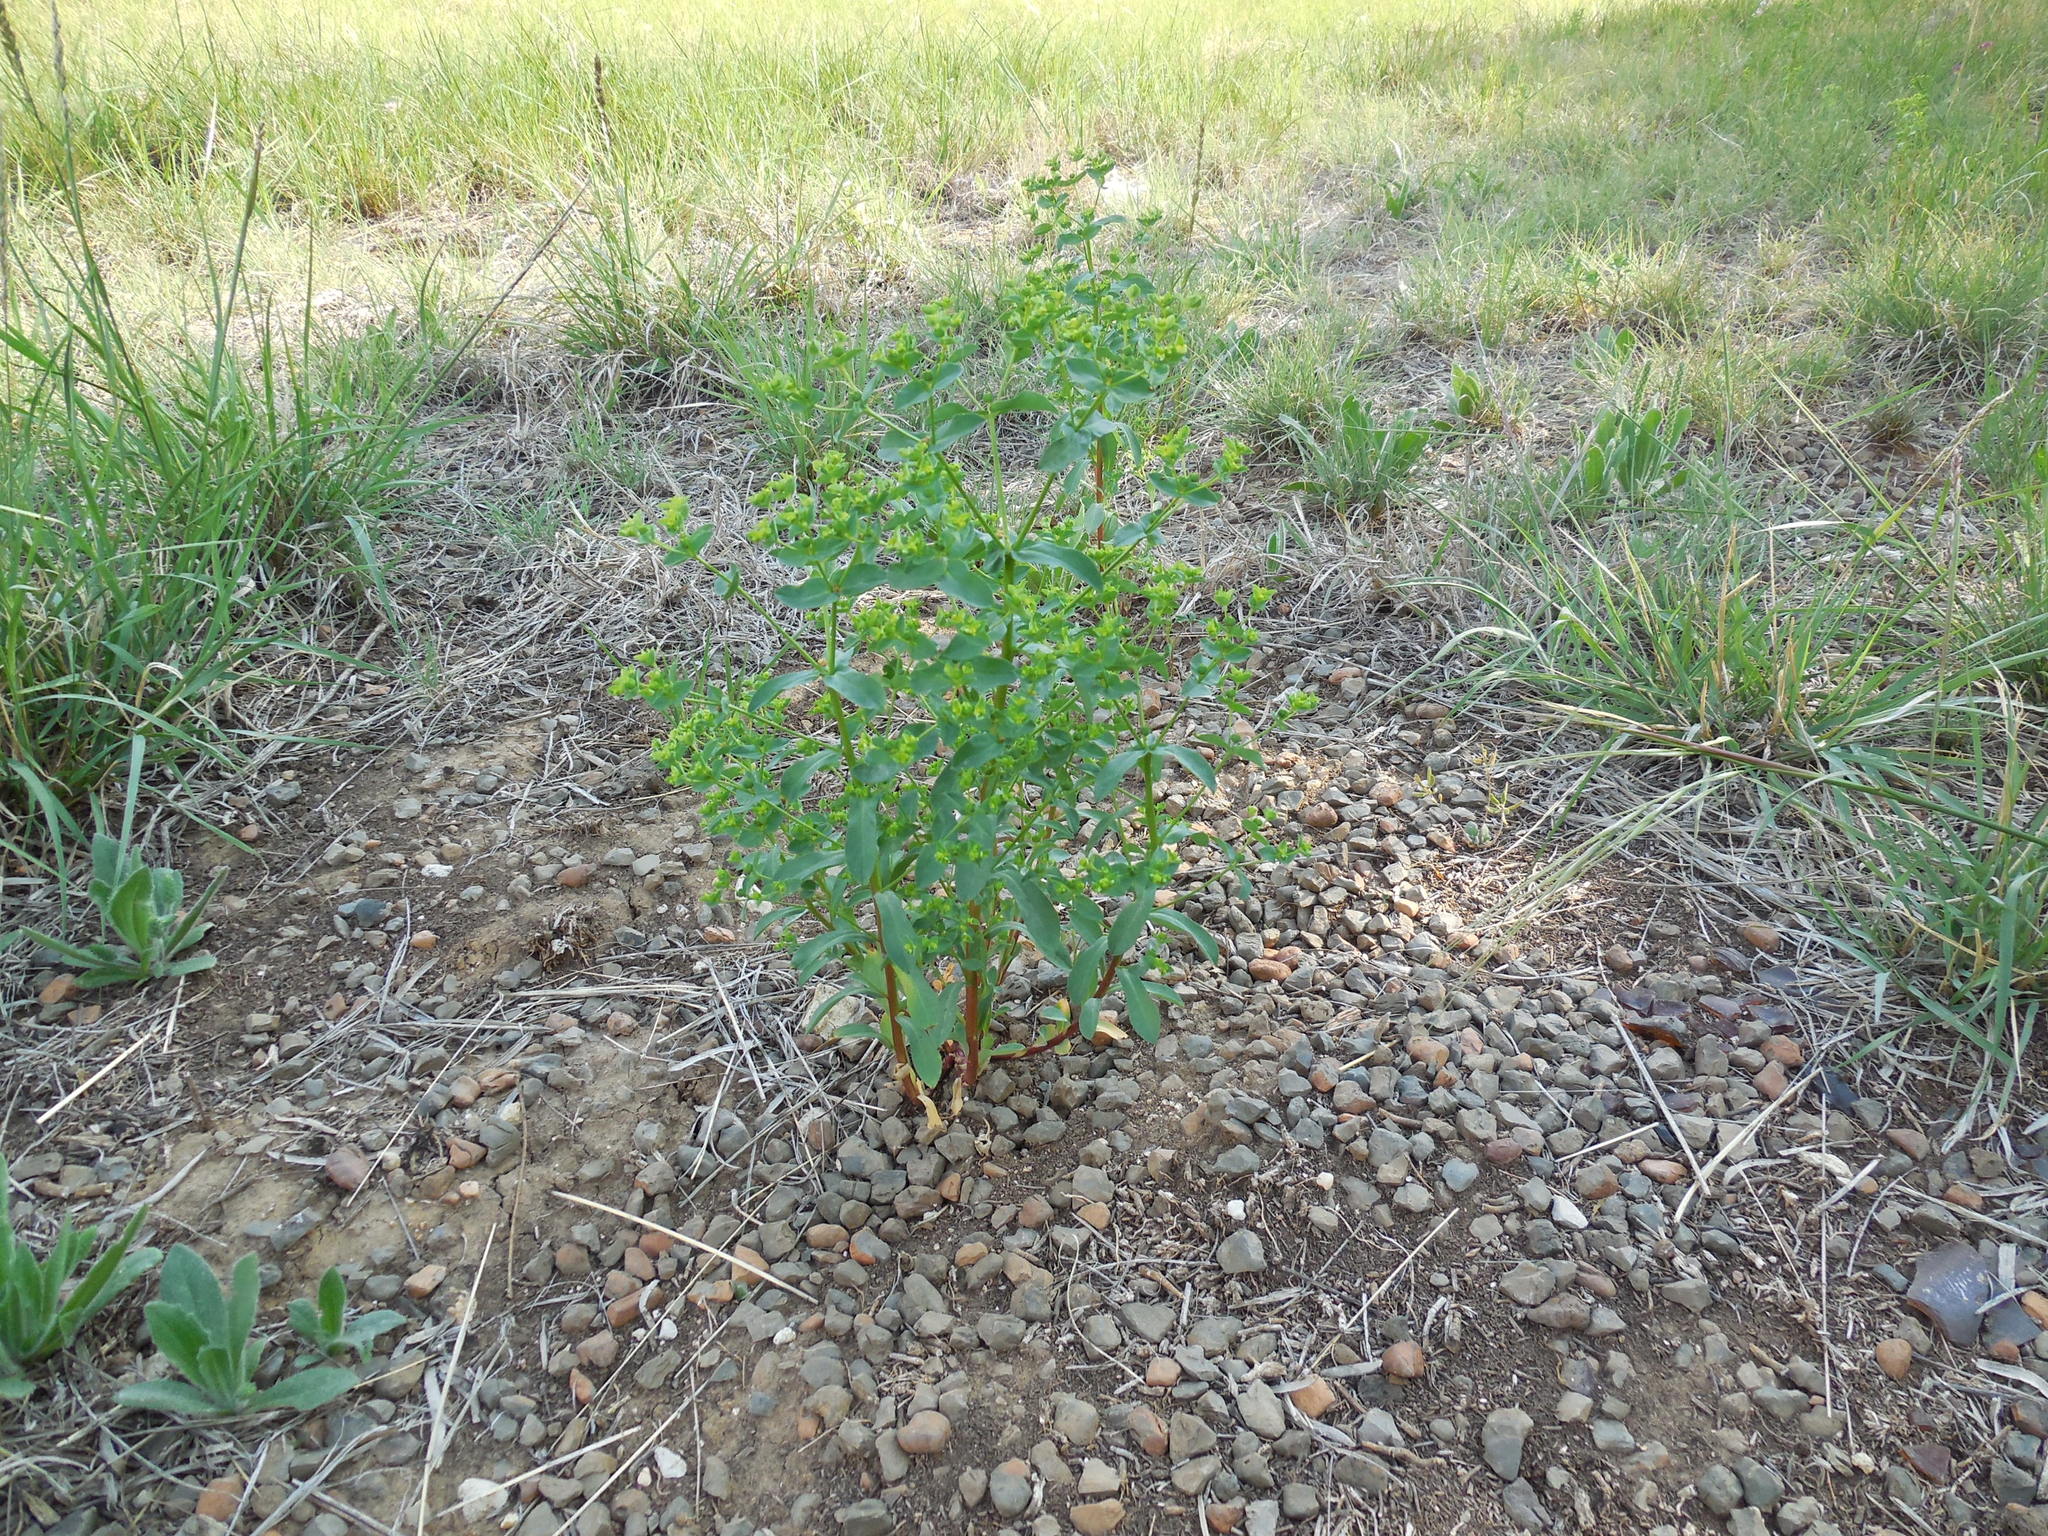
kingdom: Plantae
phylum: Tracheophyta
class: Magnoliopsida
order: Malpighiales
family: Euphorbiaceae
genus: Euphorbia
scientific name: Euphorbia spathulata
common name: Blunt spurge
